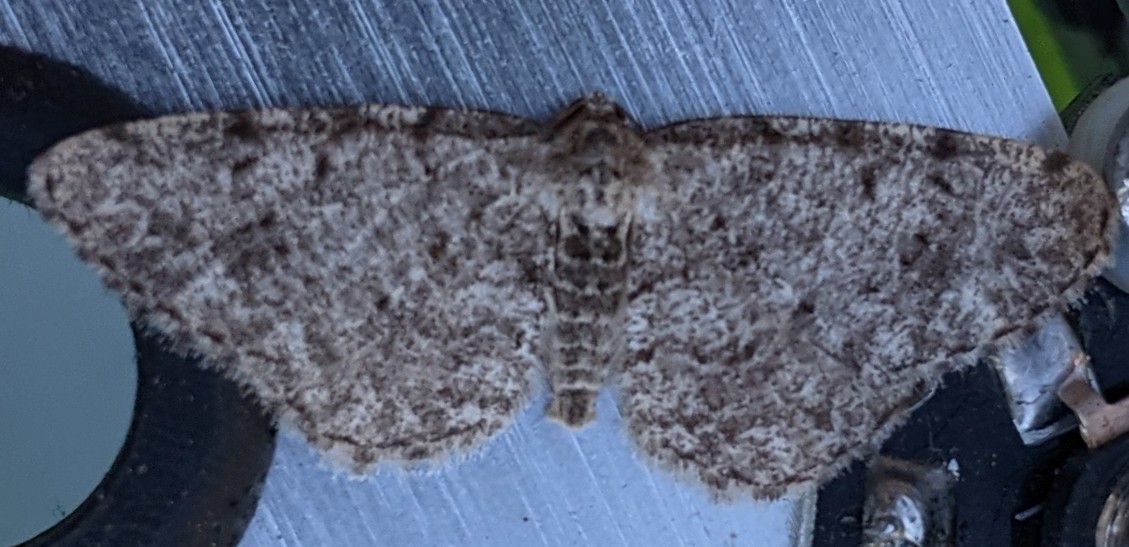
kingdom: Animalia
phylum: Arthropoda
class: Insecta
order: Lepidoptera
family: Geometridae
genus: Aethalura
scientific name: Aethalura intertexta
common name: Four-barred gray
